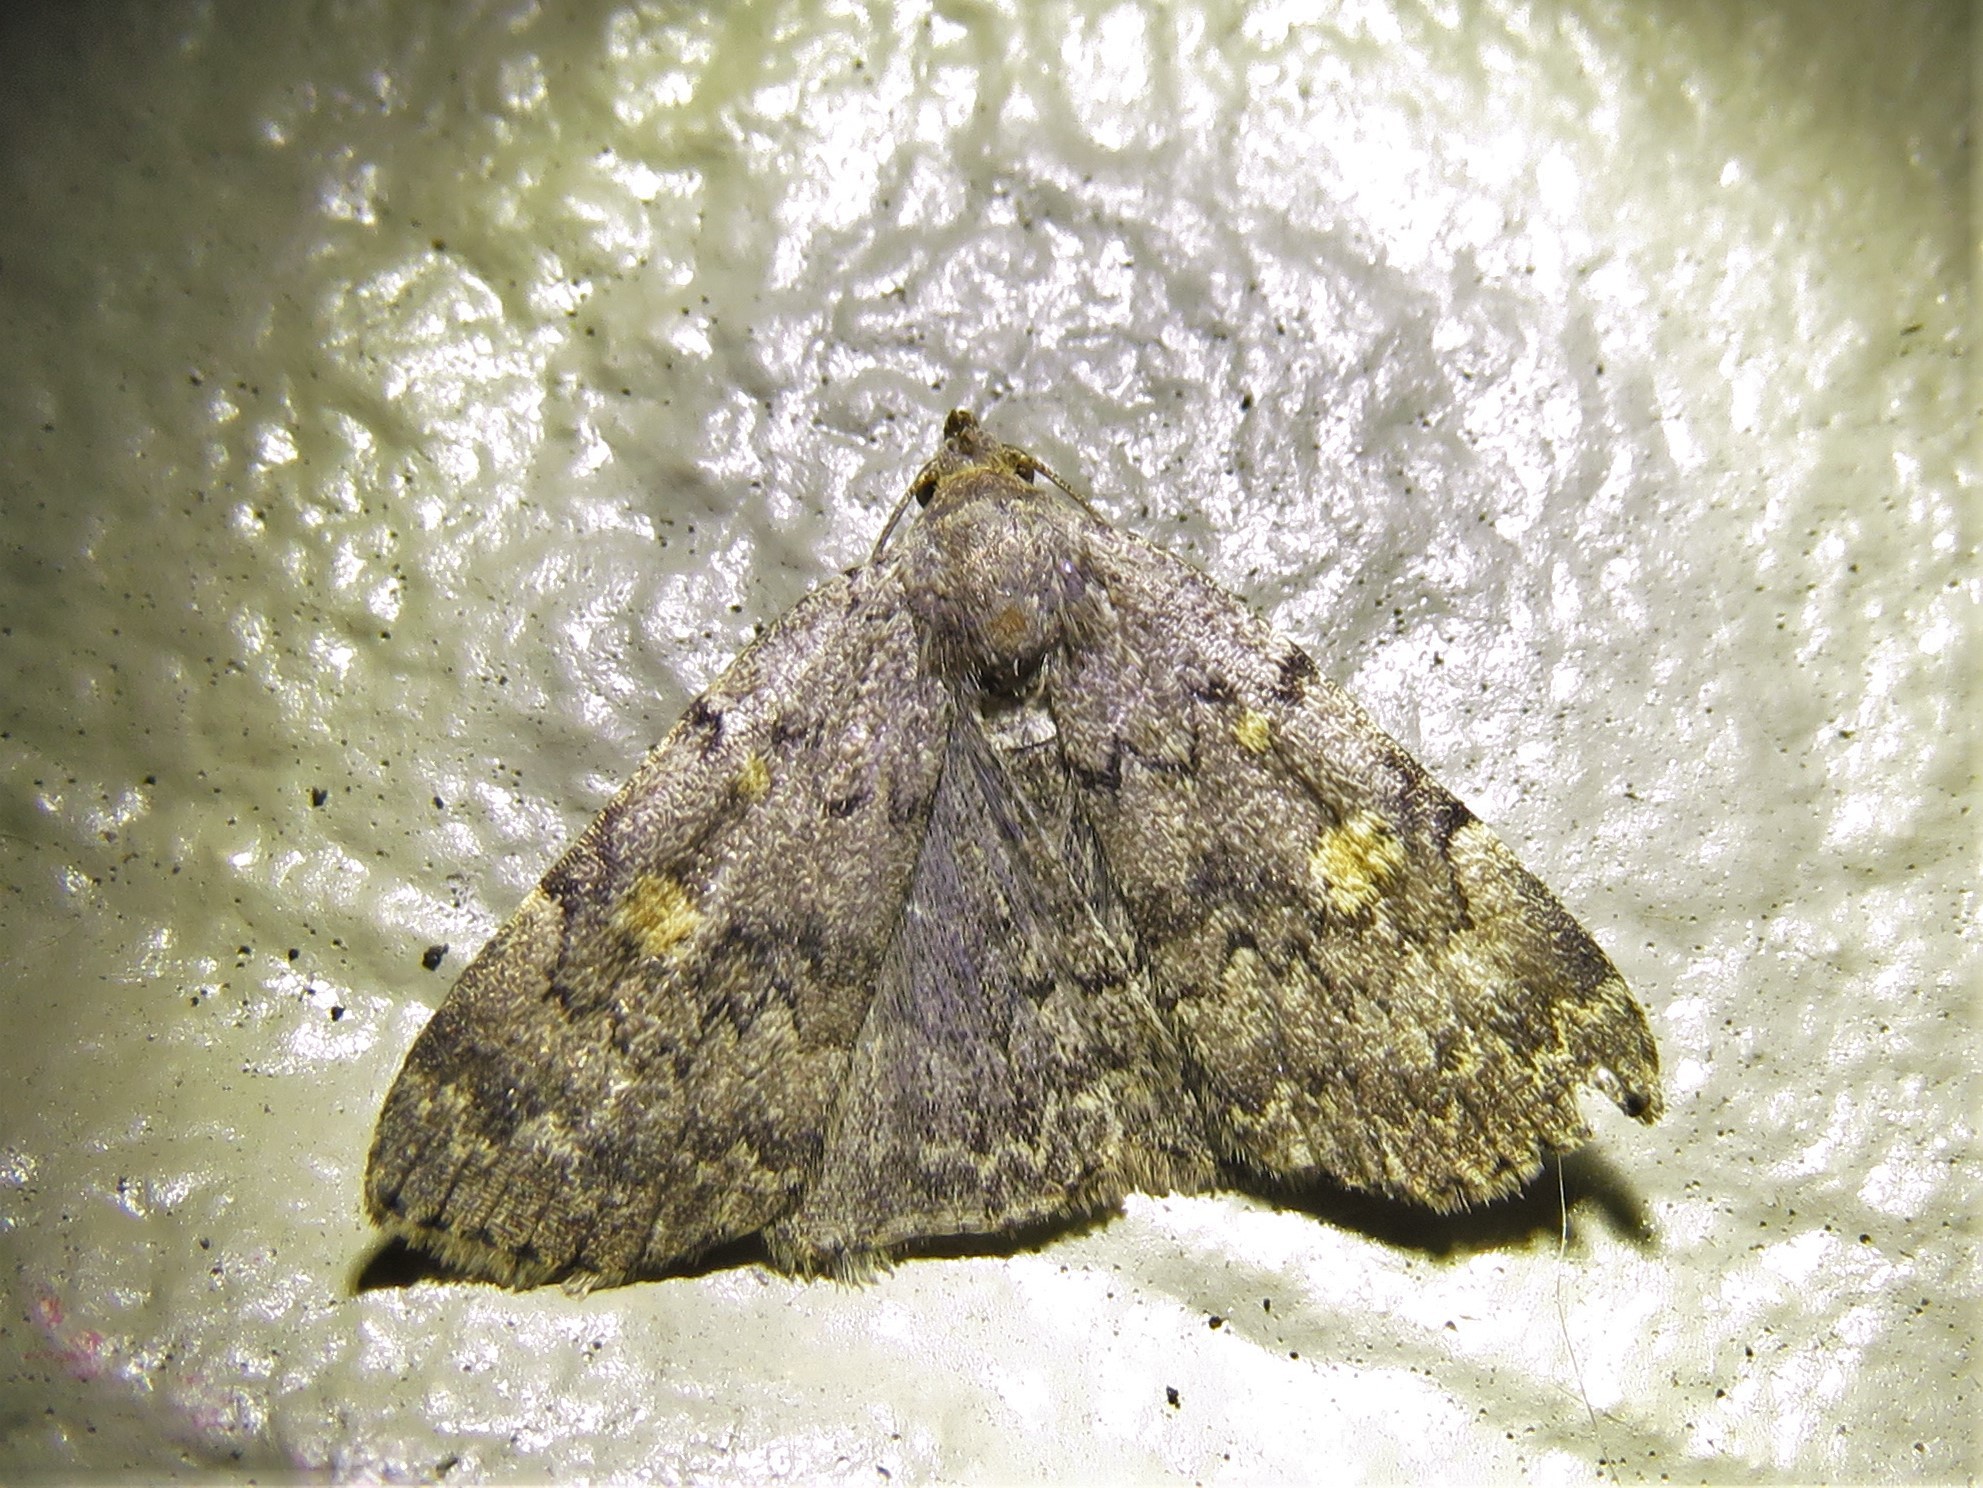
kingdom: Animalia
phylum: Arthropoda
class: Insecta
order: Lepidoptera
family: Erebidae
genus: Idia
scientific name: Idia aemula
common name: Common idia moth
